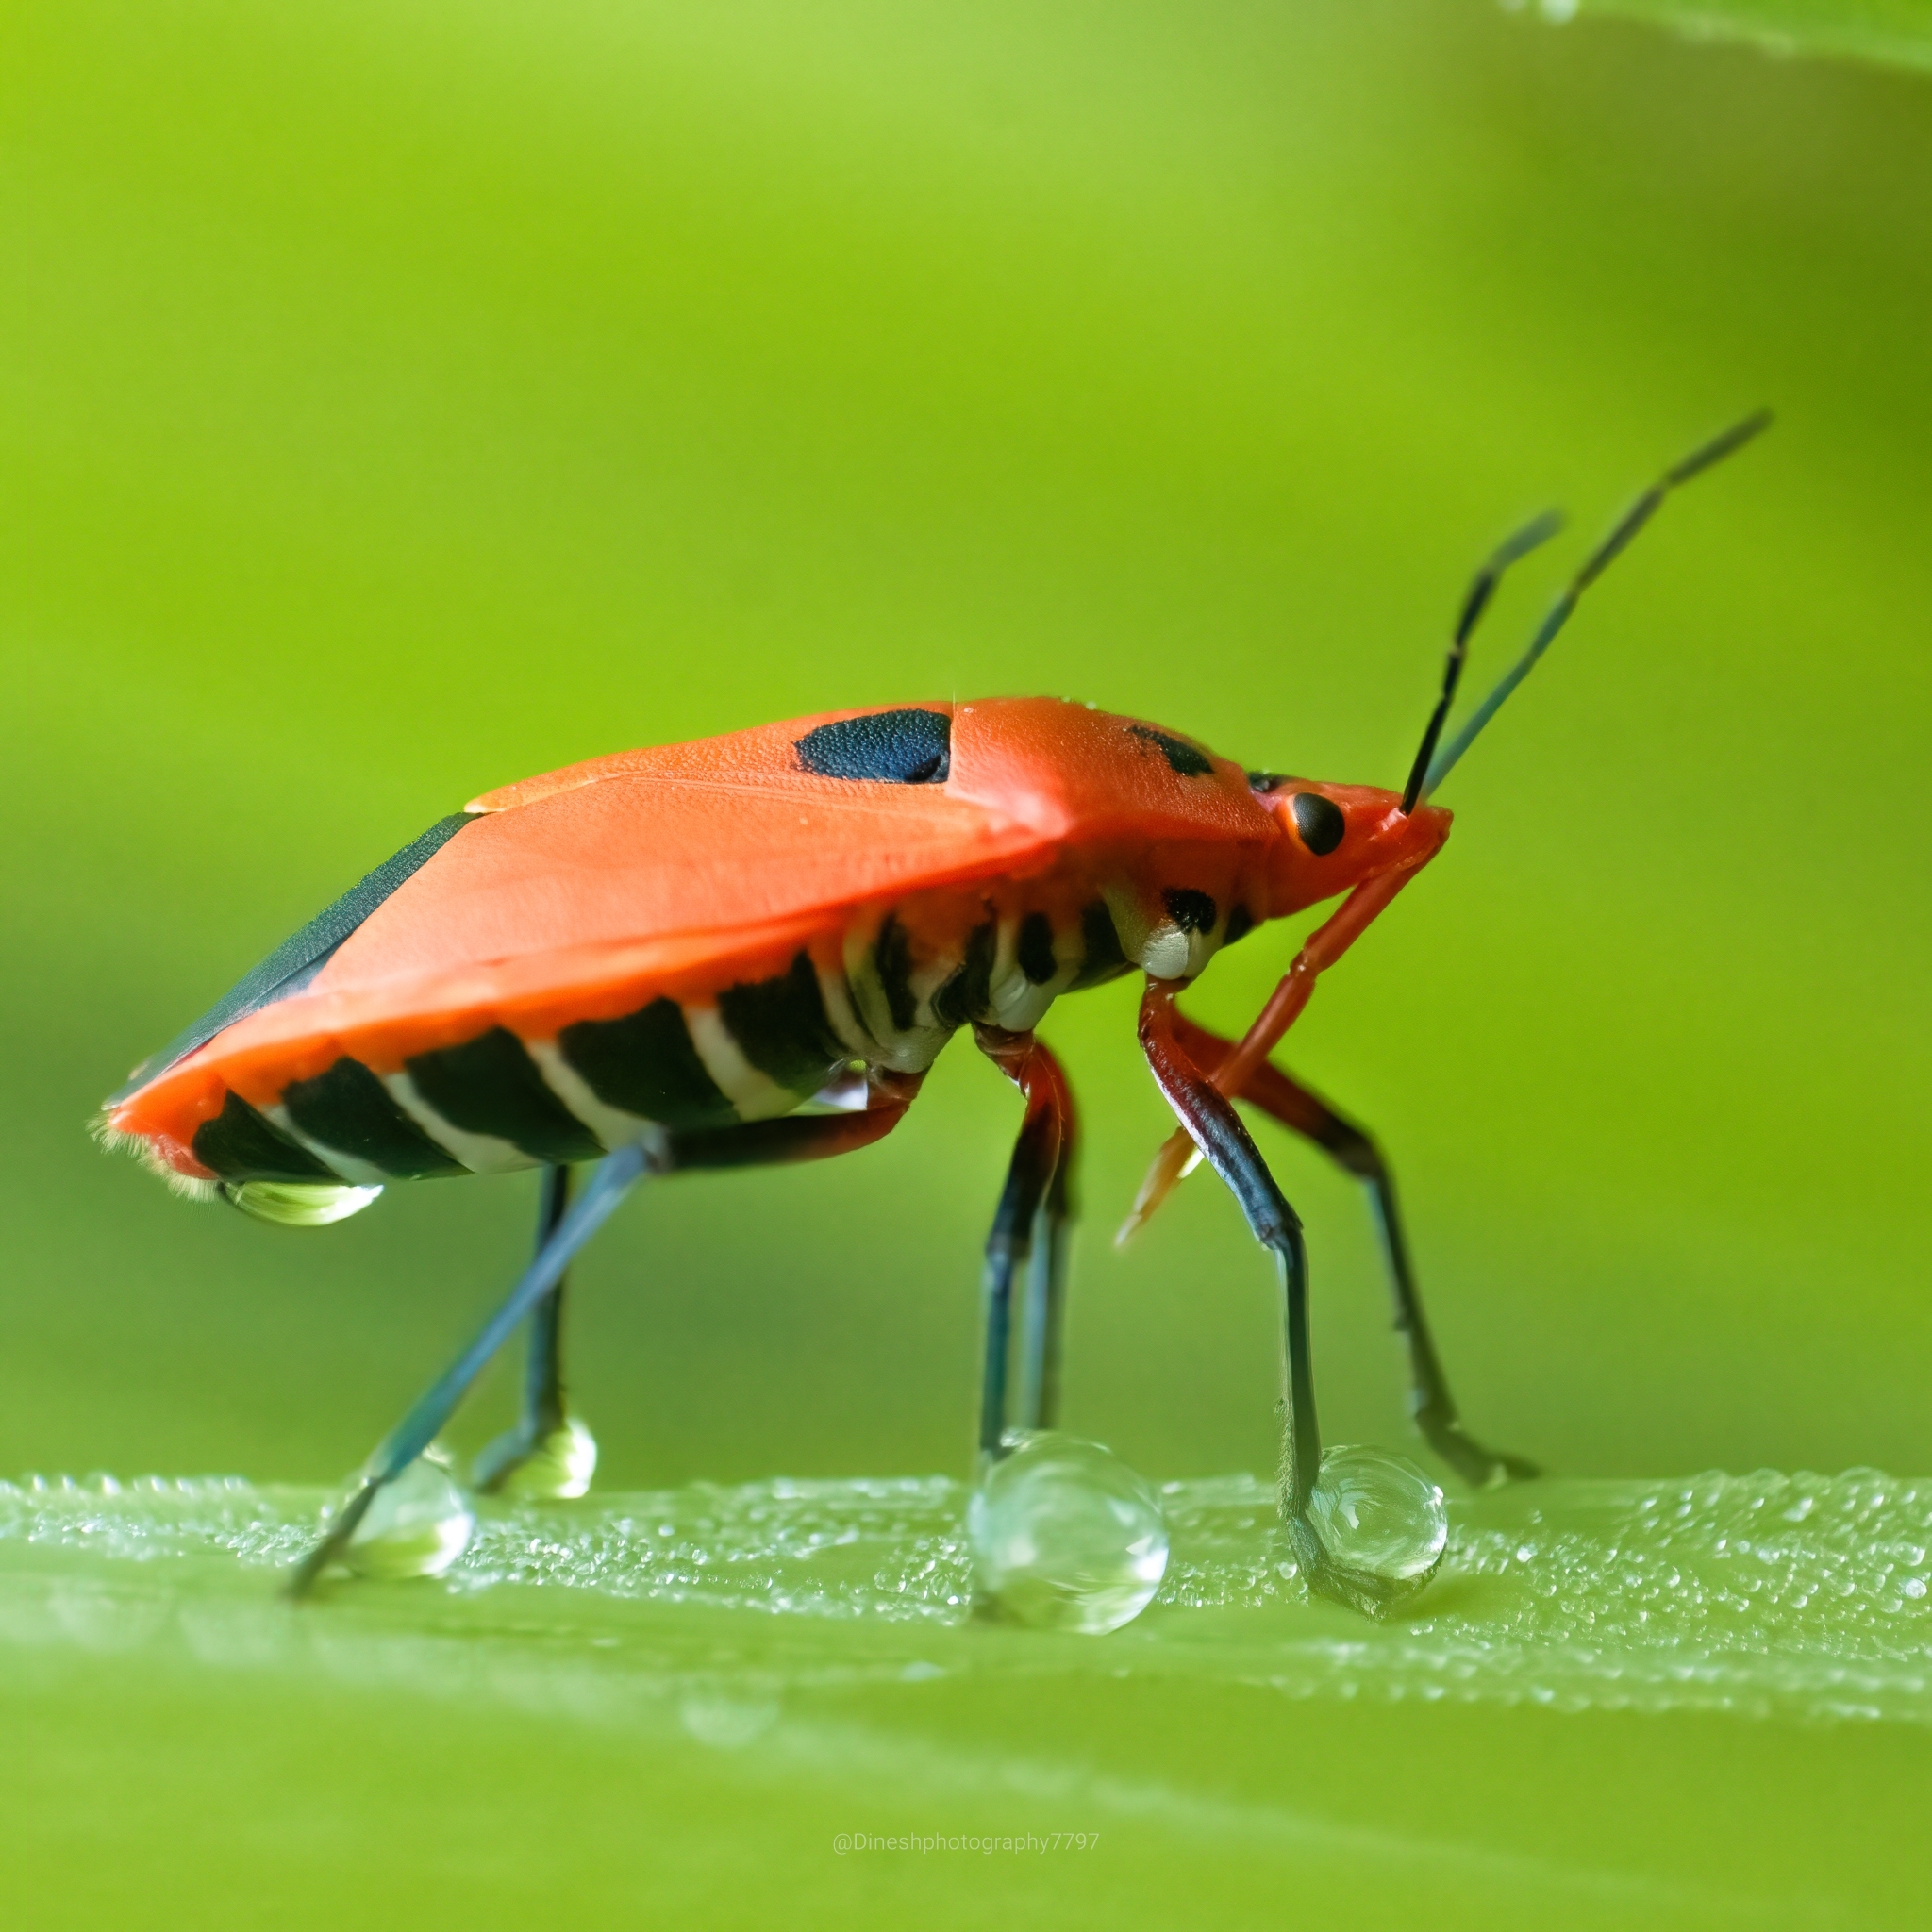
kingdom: Animalia
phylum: Arthropoda
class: Insecta
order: Hemiptera
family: Pentatomidae
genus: Amyotea
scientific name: Amyotea malabarica
